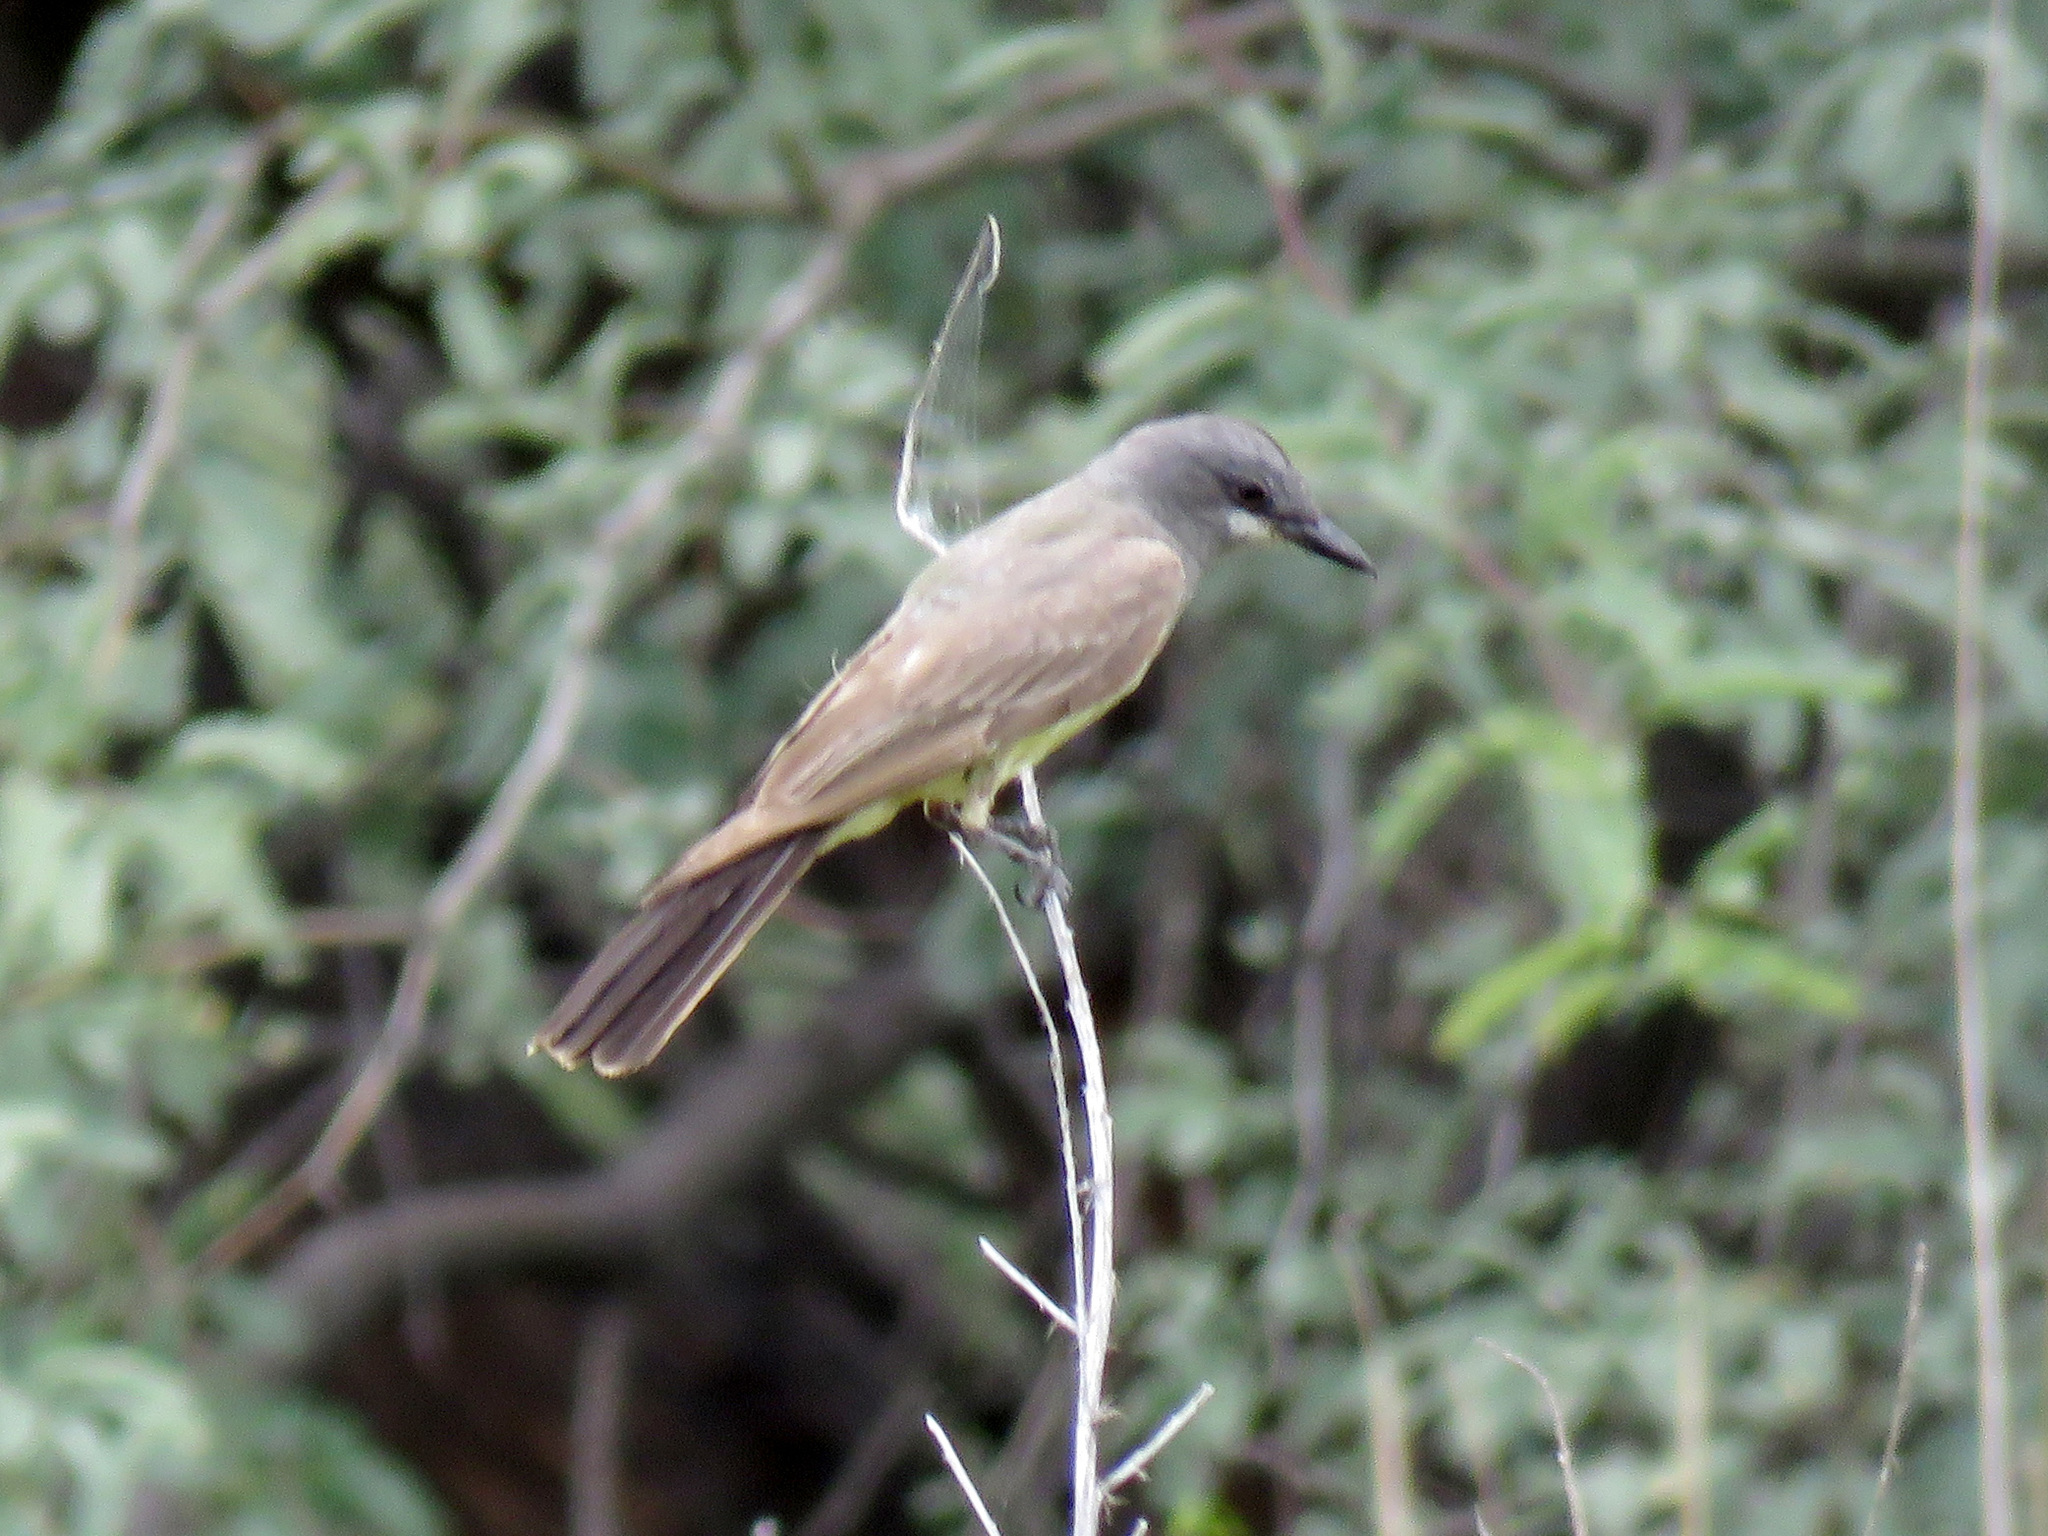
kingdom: Animalia
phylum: Chordata
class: Aves
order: Passeriformes
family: Tyrannidae
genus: Tyrannus
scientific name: Tyrannus vociferans
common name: Cassin's kingbird
